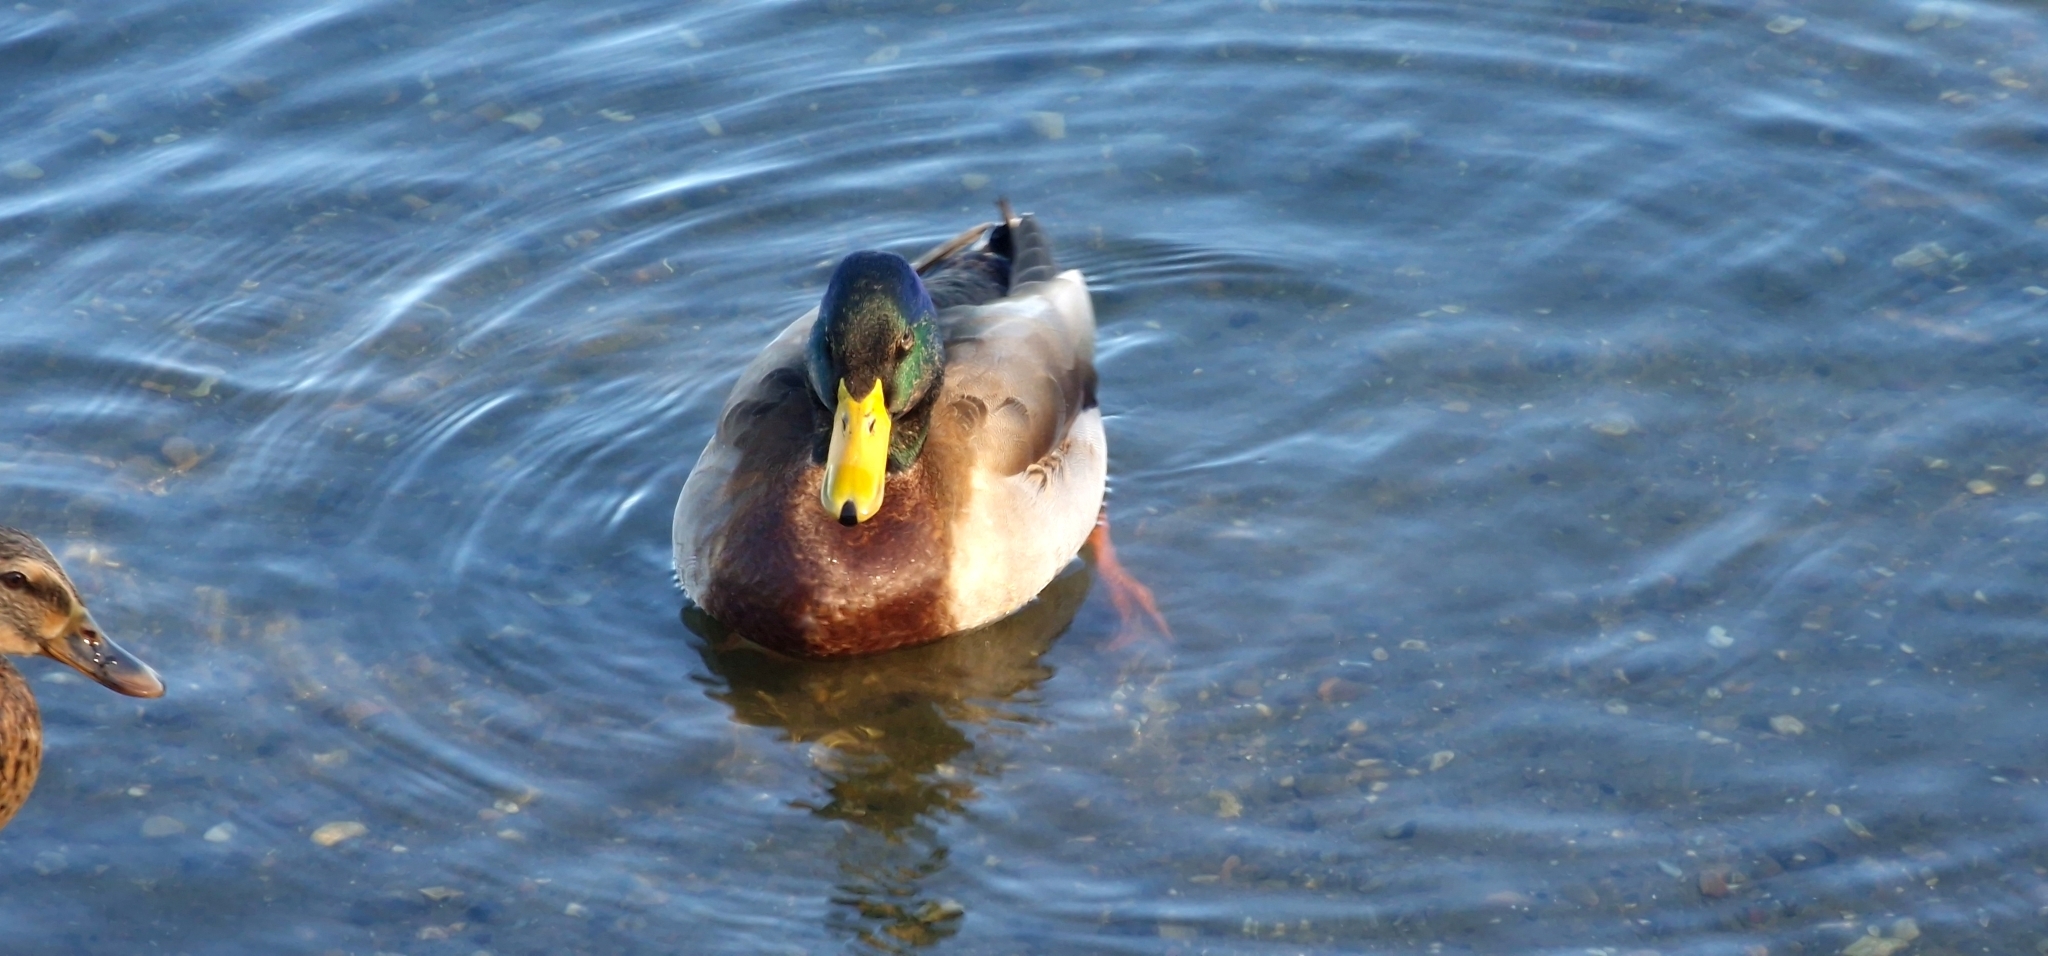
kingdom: Animalia
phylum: Chordata
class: Aves
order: Anseriformes
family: Anatidae
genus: Anas
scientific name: Anas platyrhynchos
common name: Mallard
